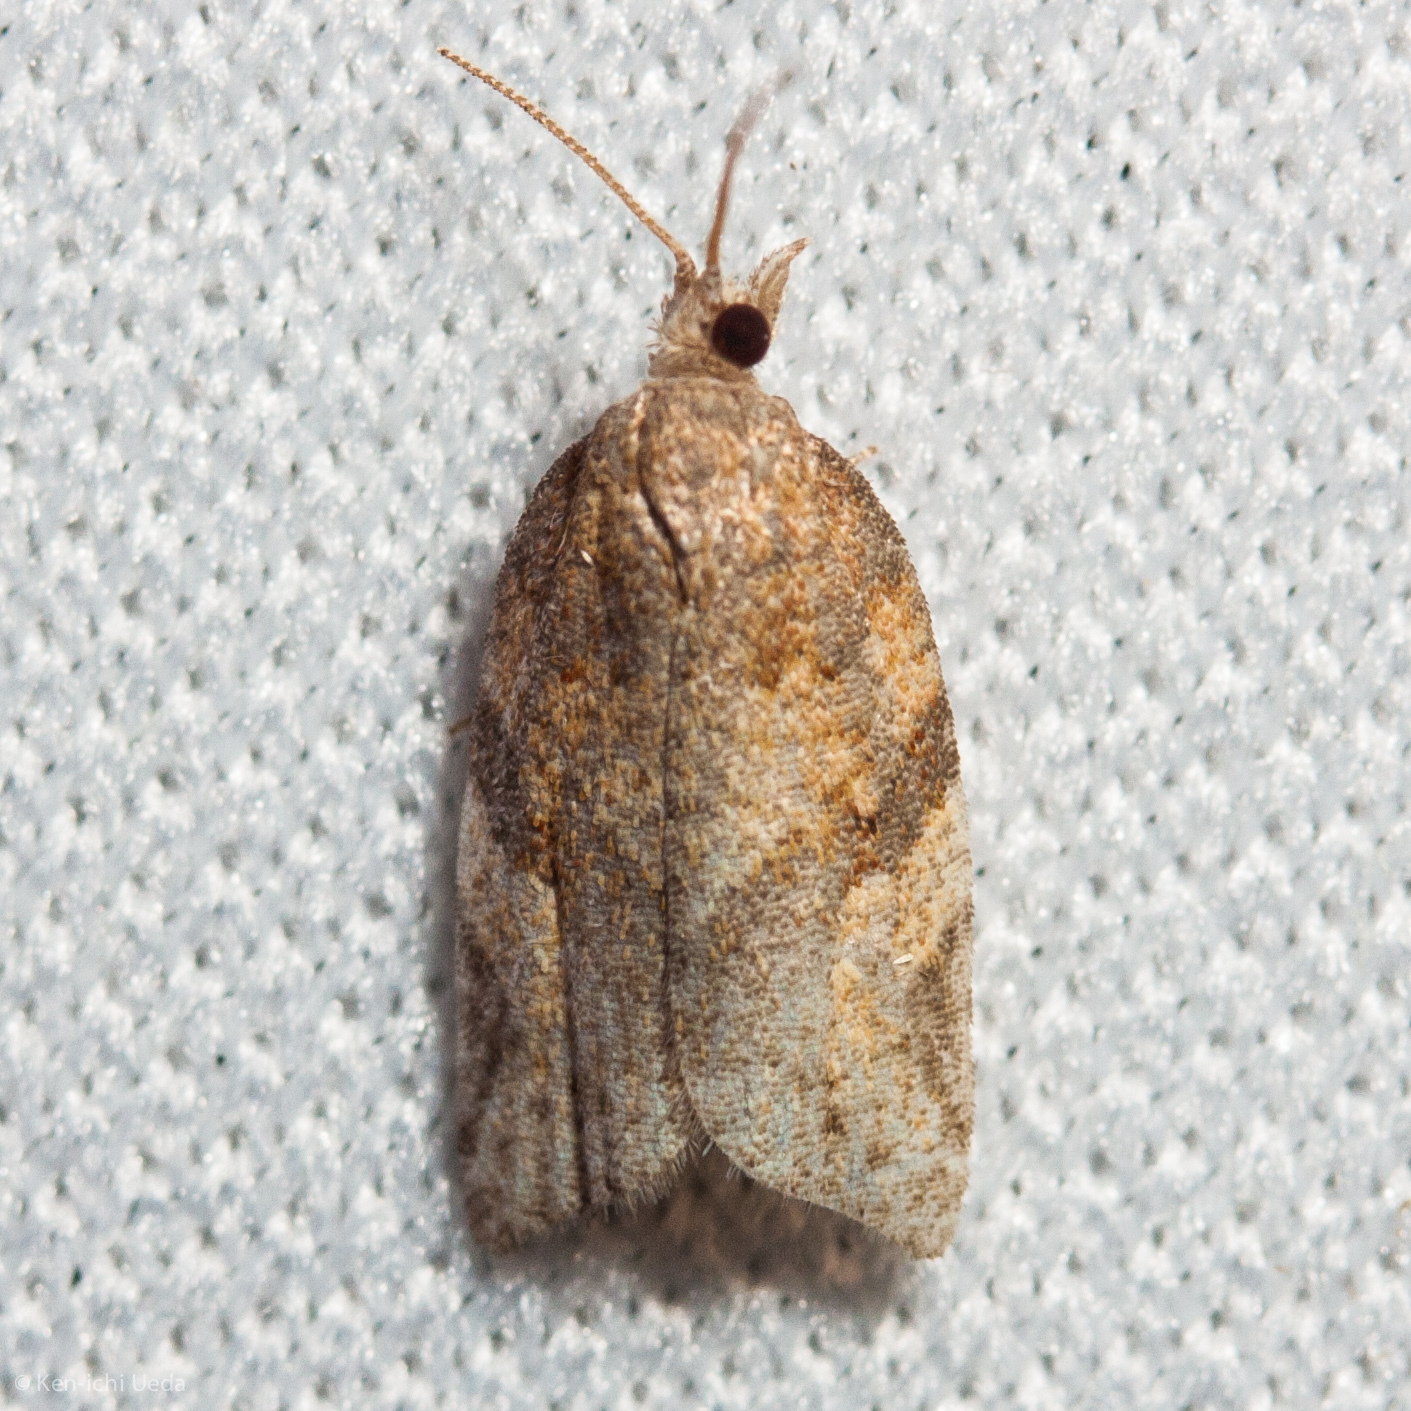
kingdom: Animalia
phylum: Arthropoda
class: Insecta
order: Lepidoptera
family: Tortricidae
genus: Argyrotaenia
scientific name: Argyrotaenia franciscana
